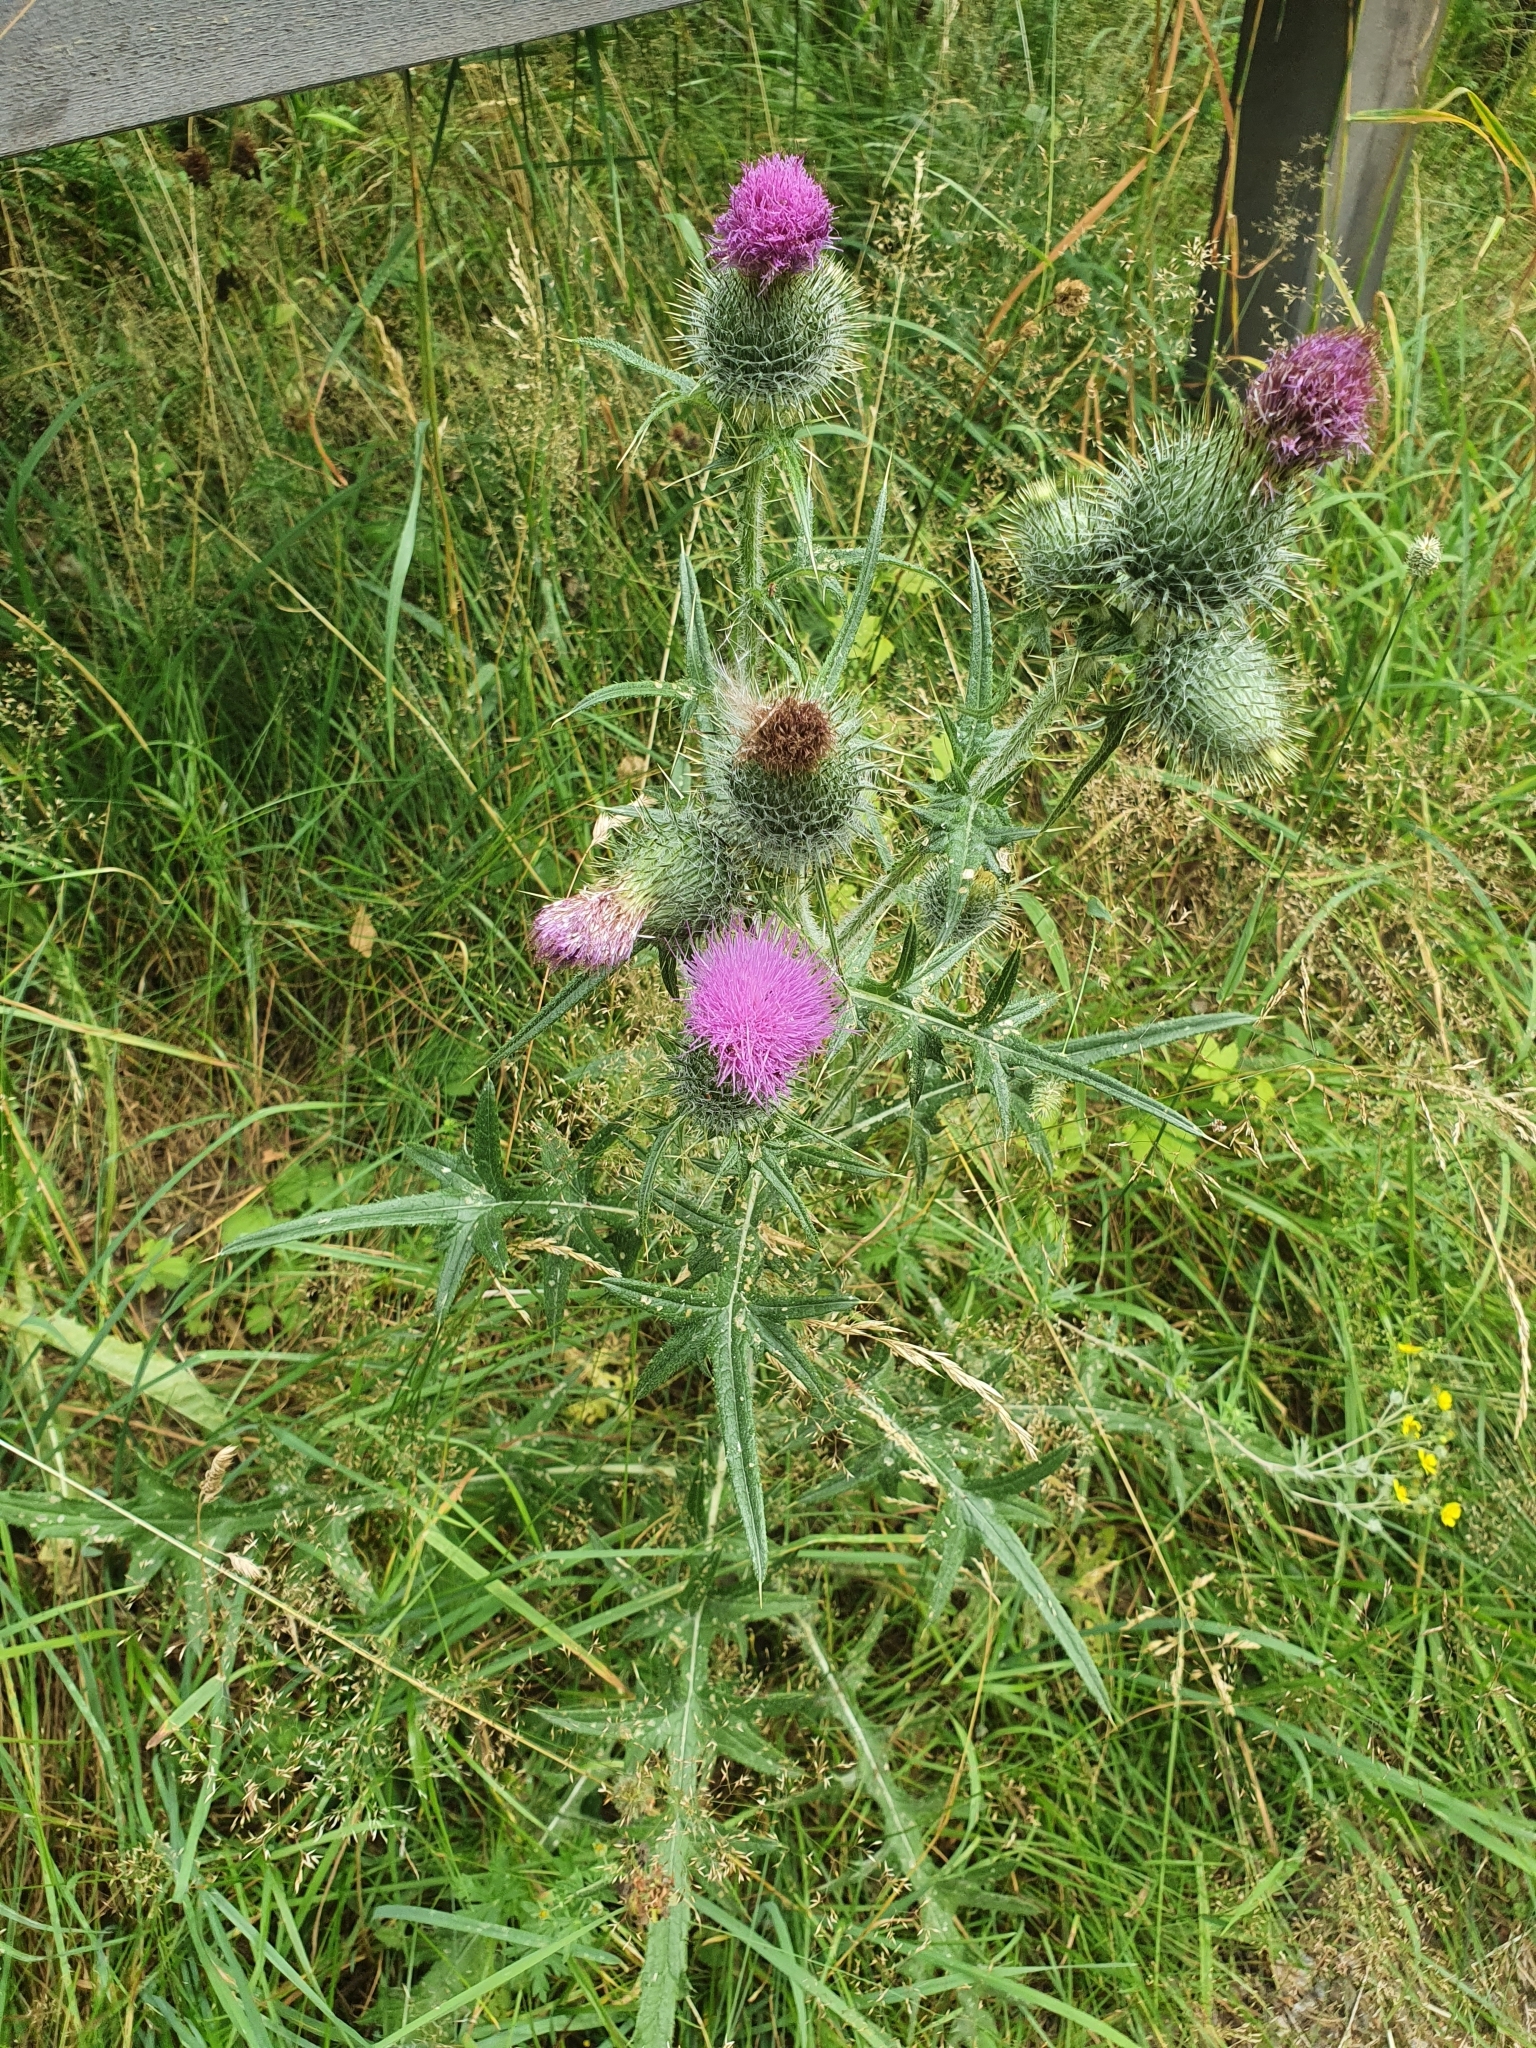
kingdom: Plantae
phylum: Tracheophyta
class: Magnoliopsida
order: Asterales
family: Asteraceae
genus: Cirsium
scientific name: Cirsium vulgare
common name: Bull thistle
